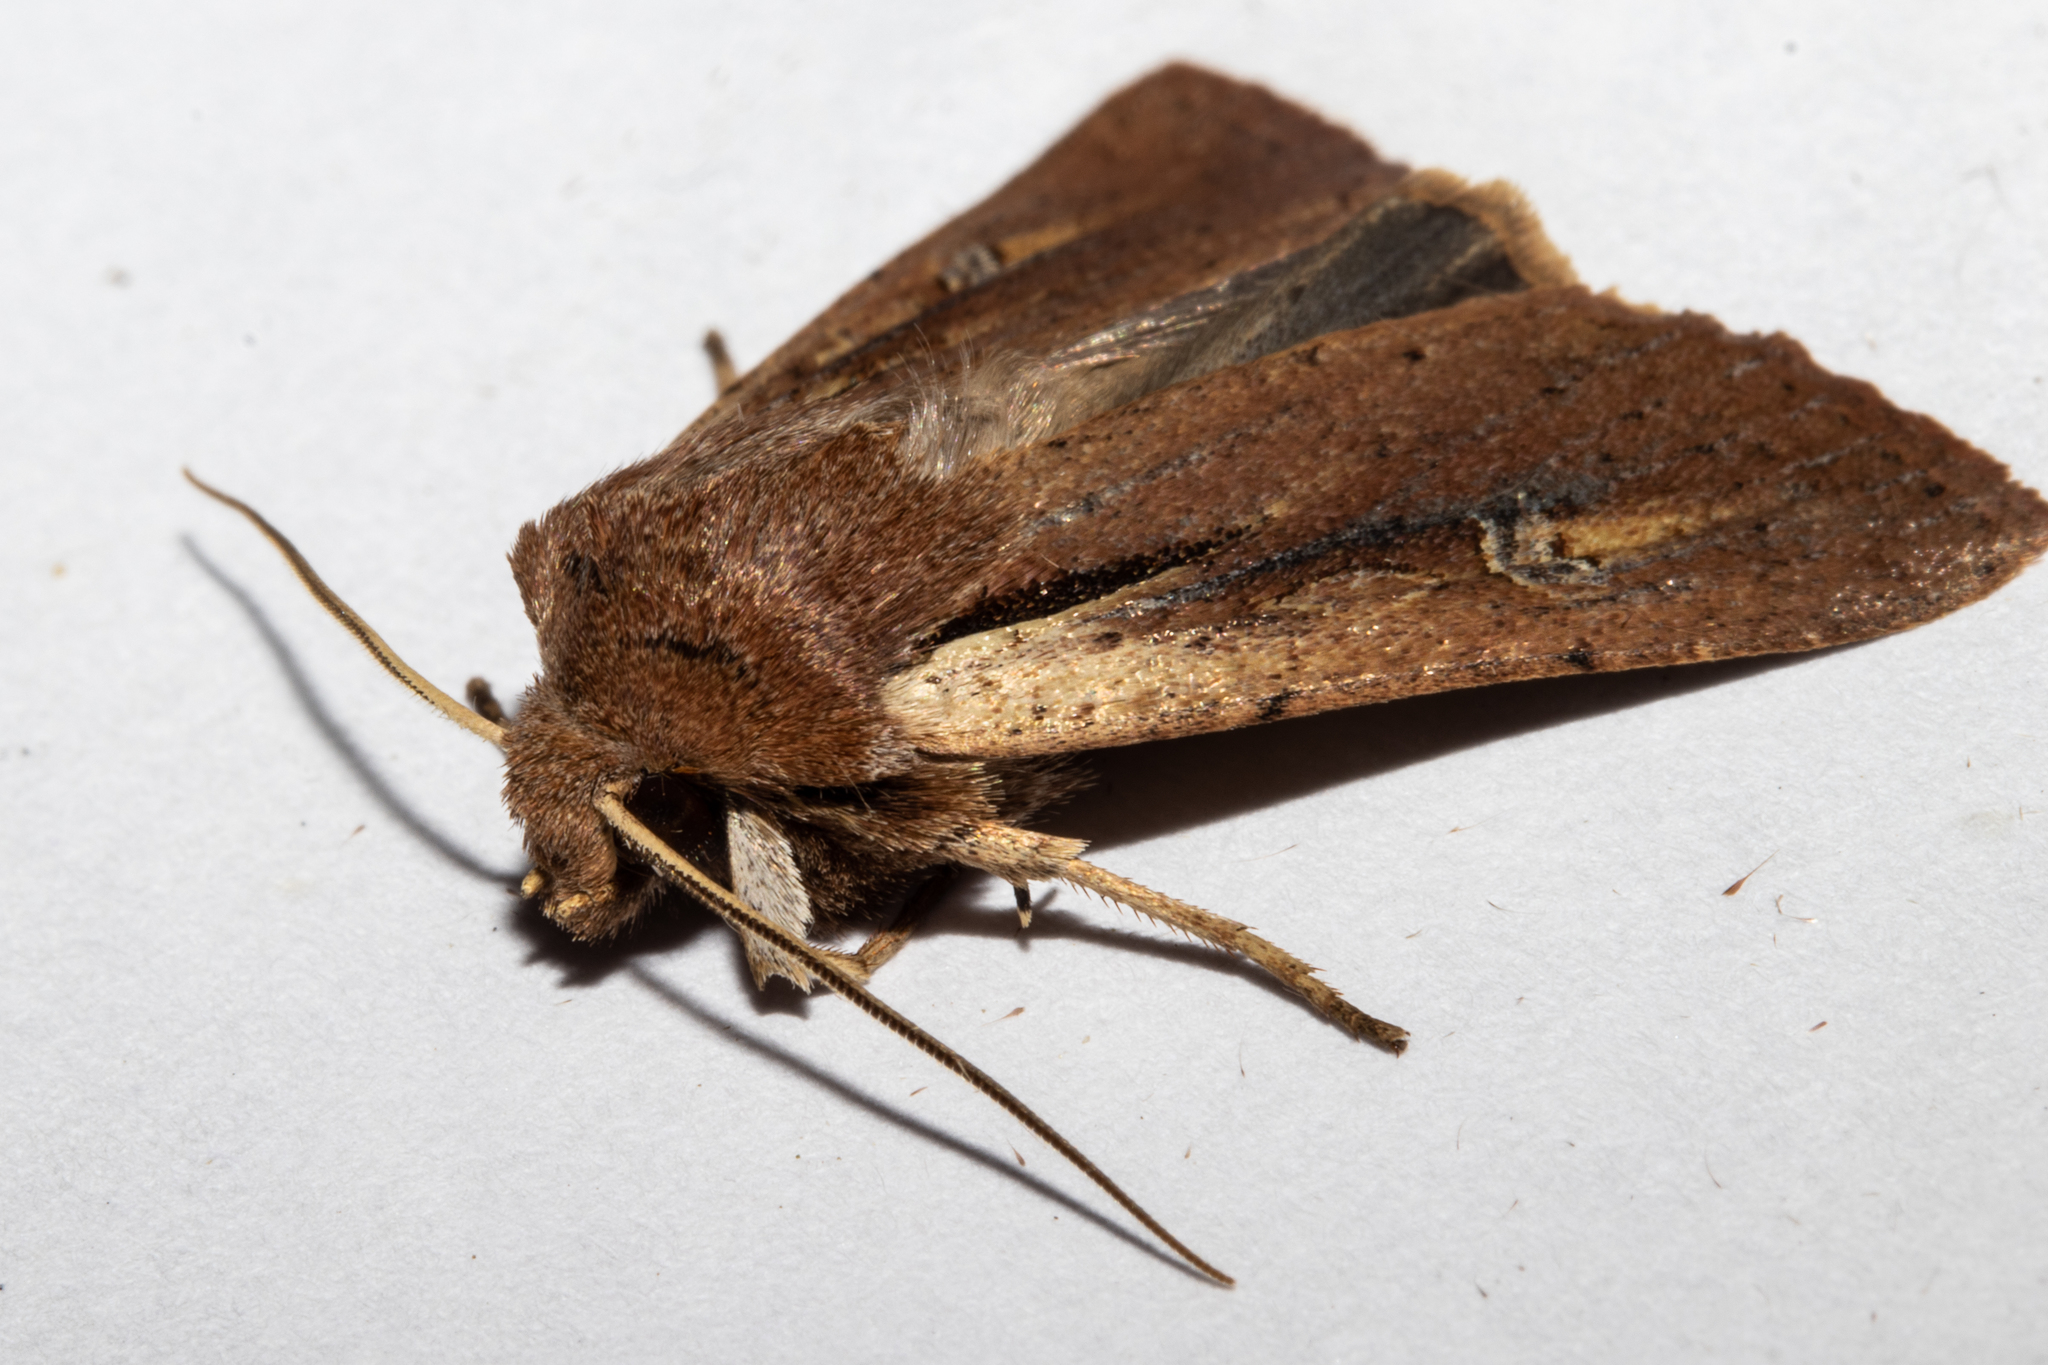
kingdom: Animalia
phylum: Arthropoda
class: Insecta
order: Lepidoptera
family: Noctuidae
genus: Ichneutica
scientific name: Ichneutica atristriga
